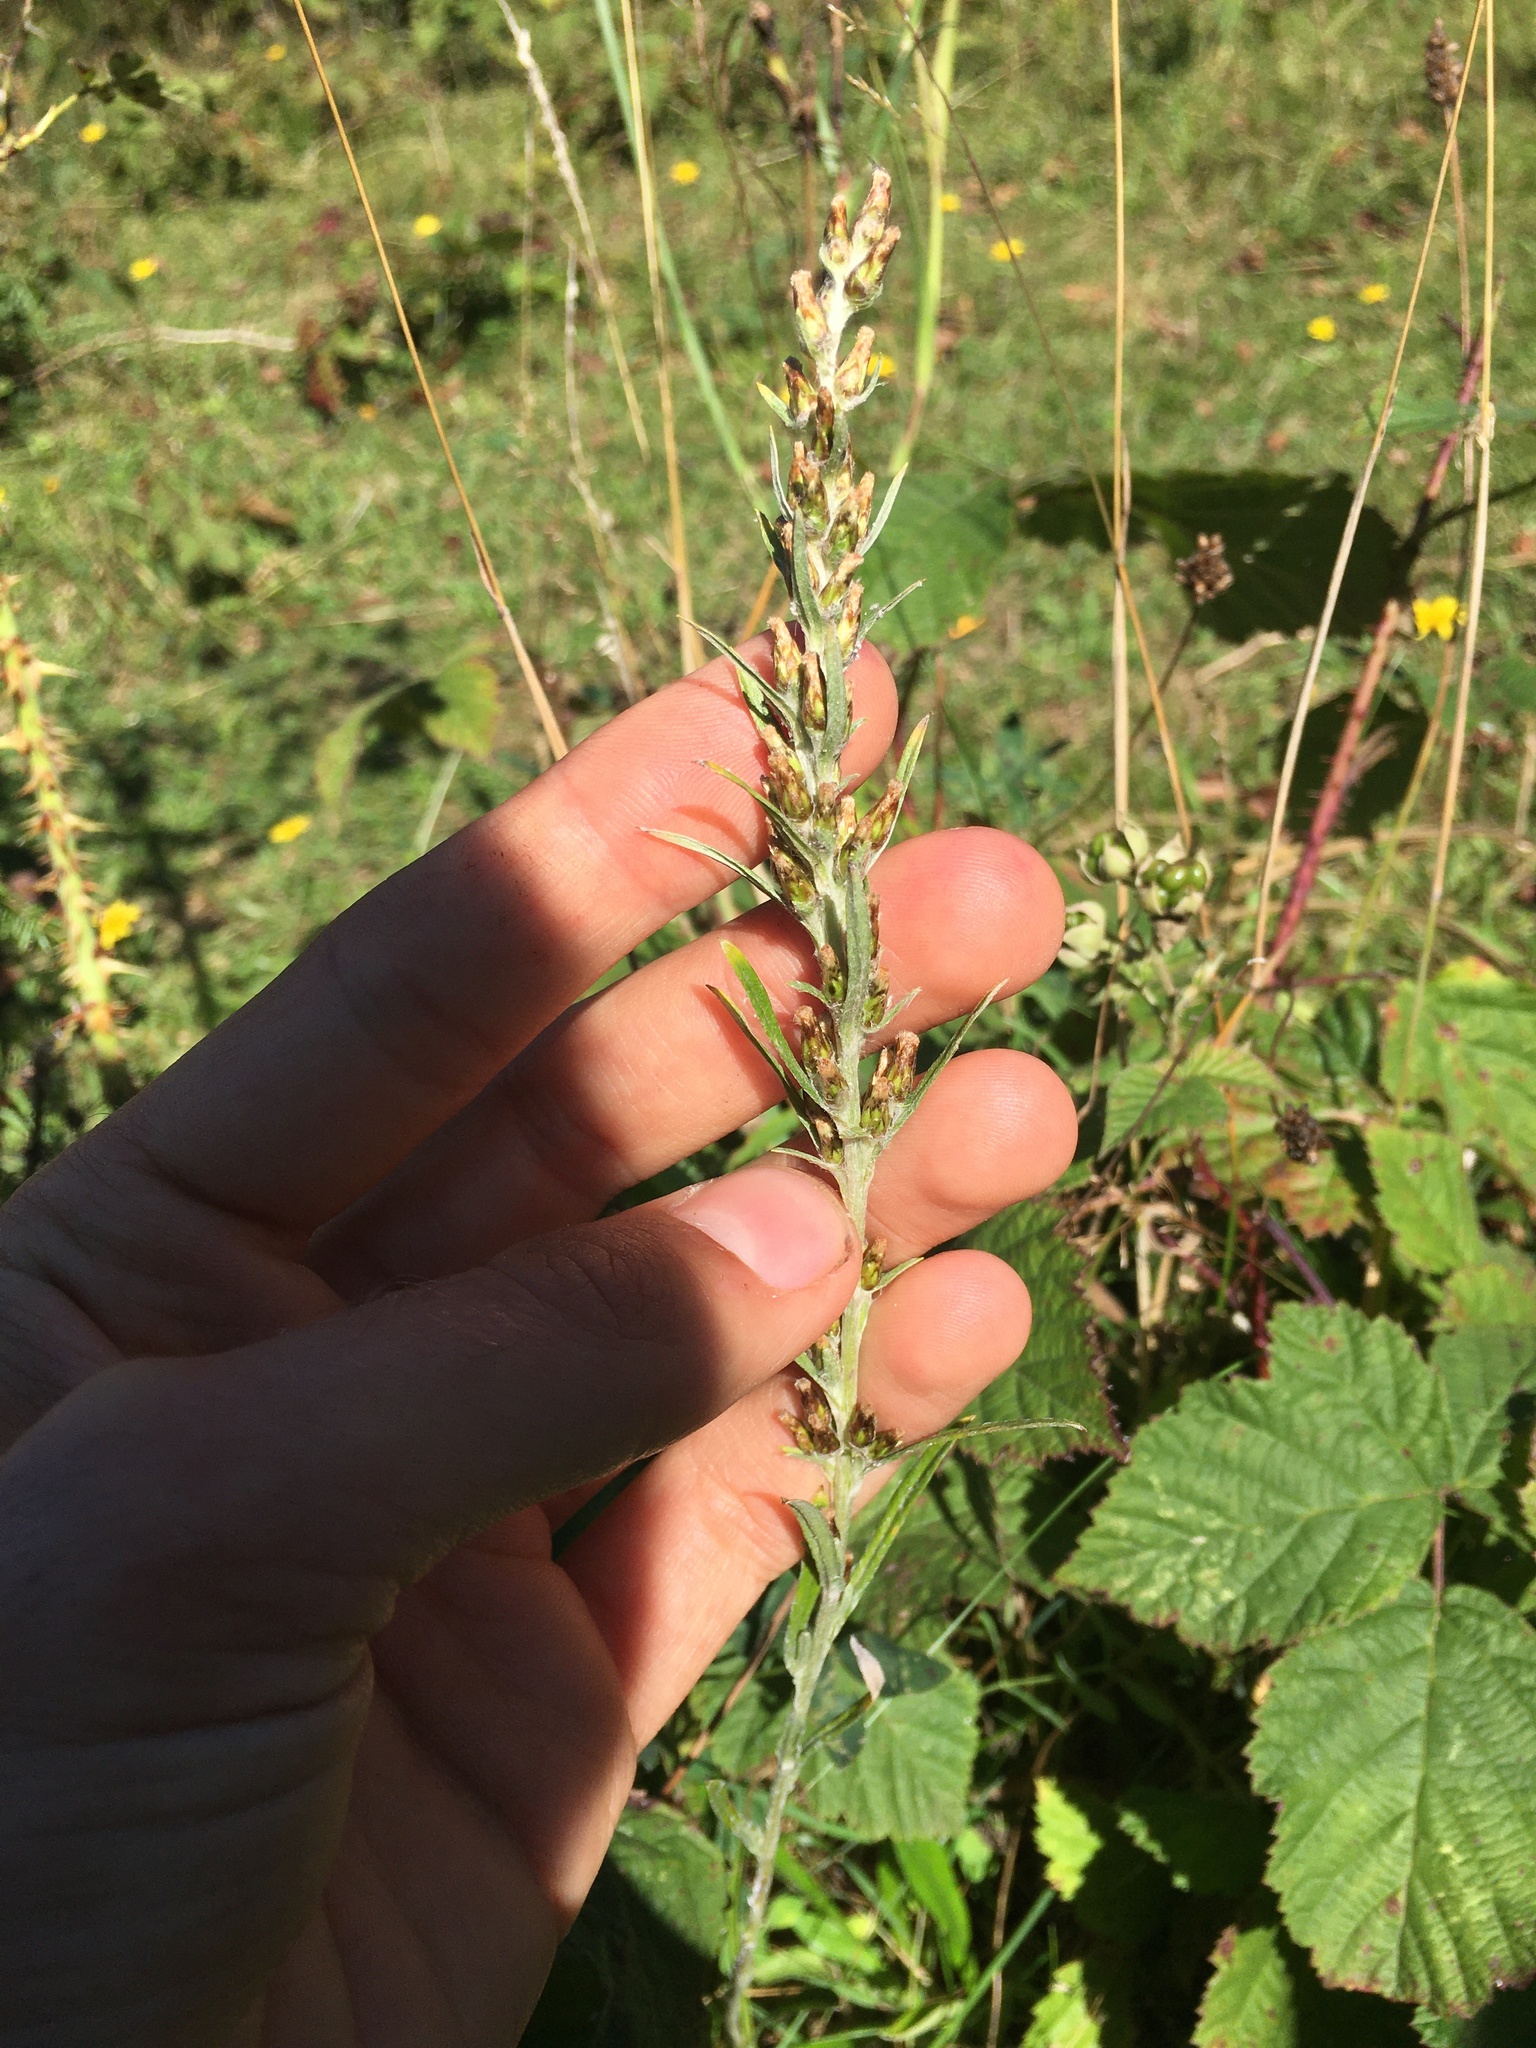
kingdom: Plantae
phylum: Tracheophyta
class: Magnoliopsida
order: Asterales
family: Asteraceae
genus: Omalotheca
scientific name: Omalotheca sylvatica
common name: Heath cudweed
